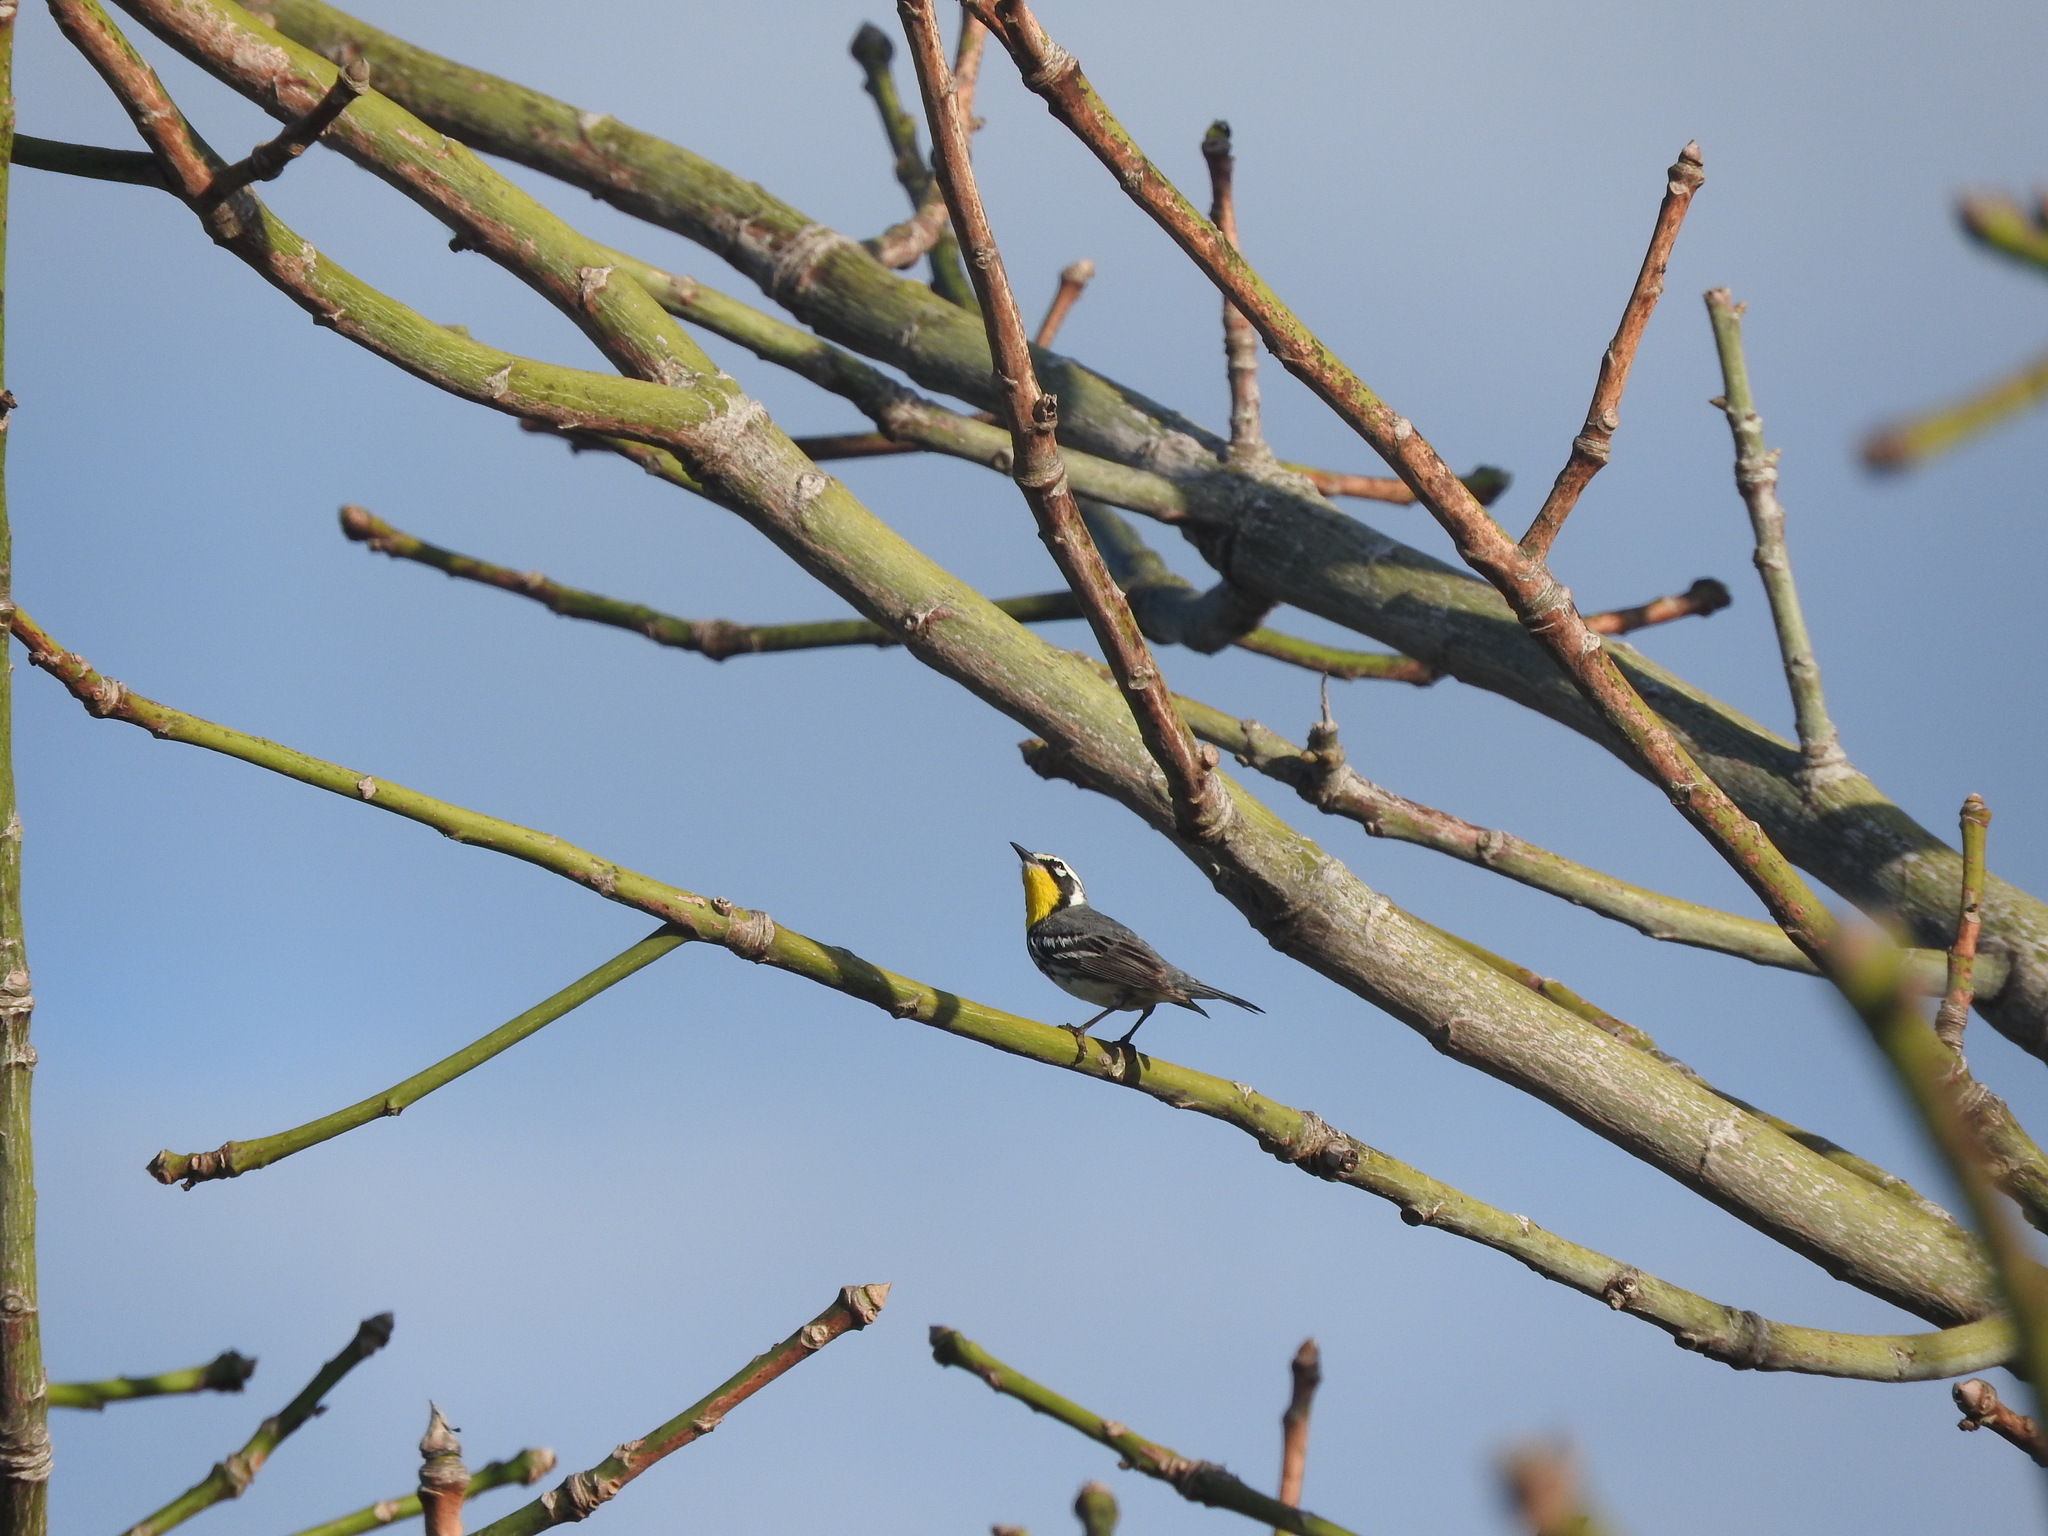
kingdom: Animalia
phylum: Chordata
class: Aves
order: Passeriformes
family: Parulidae
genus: Setophaga
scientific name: Setophaga dominica
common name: Yellow-throated warbler
